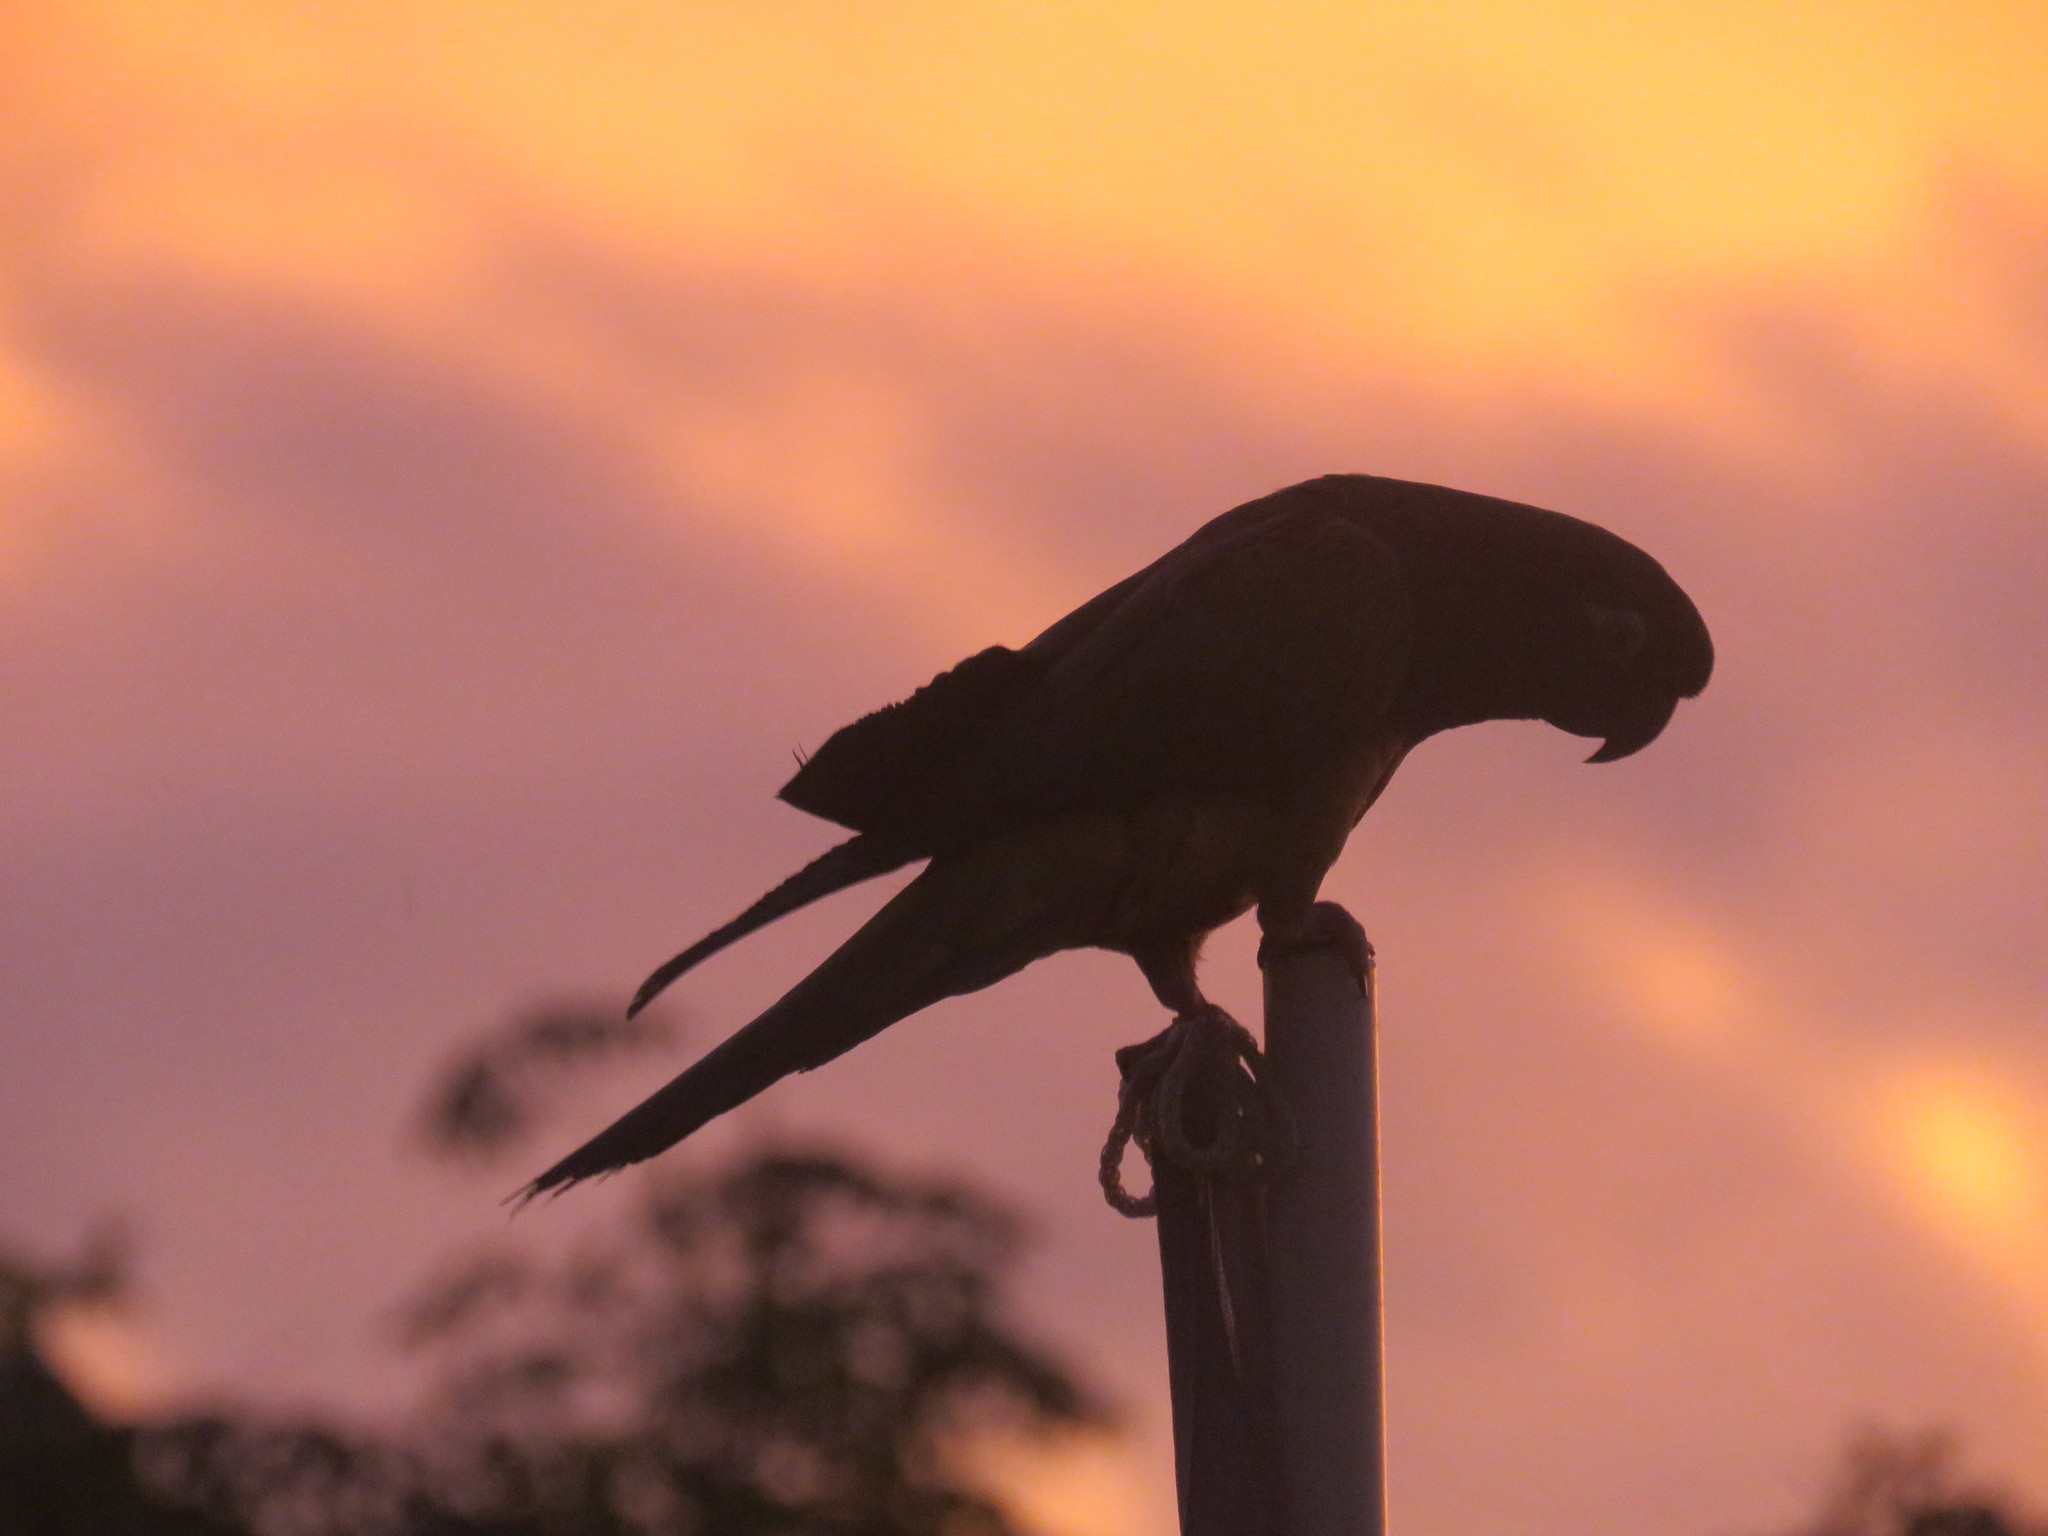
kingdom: Animalia
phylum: Chordata
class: Aves
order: Psittaciformes
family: Psittacidae
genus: Cyanoliseus
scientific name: Cyanoliseus patagonus
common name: Burrowing parrot
